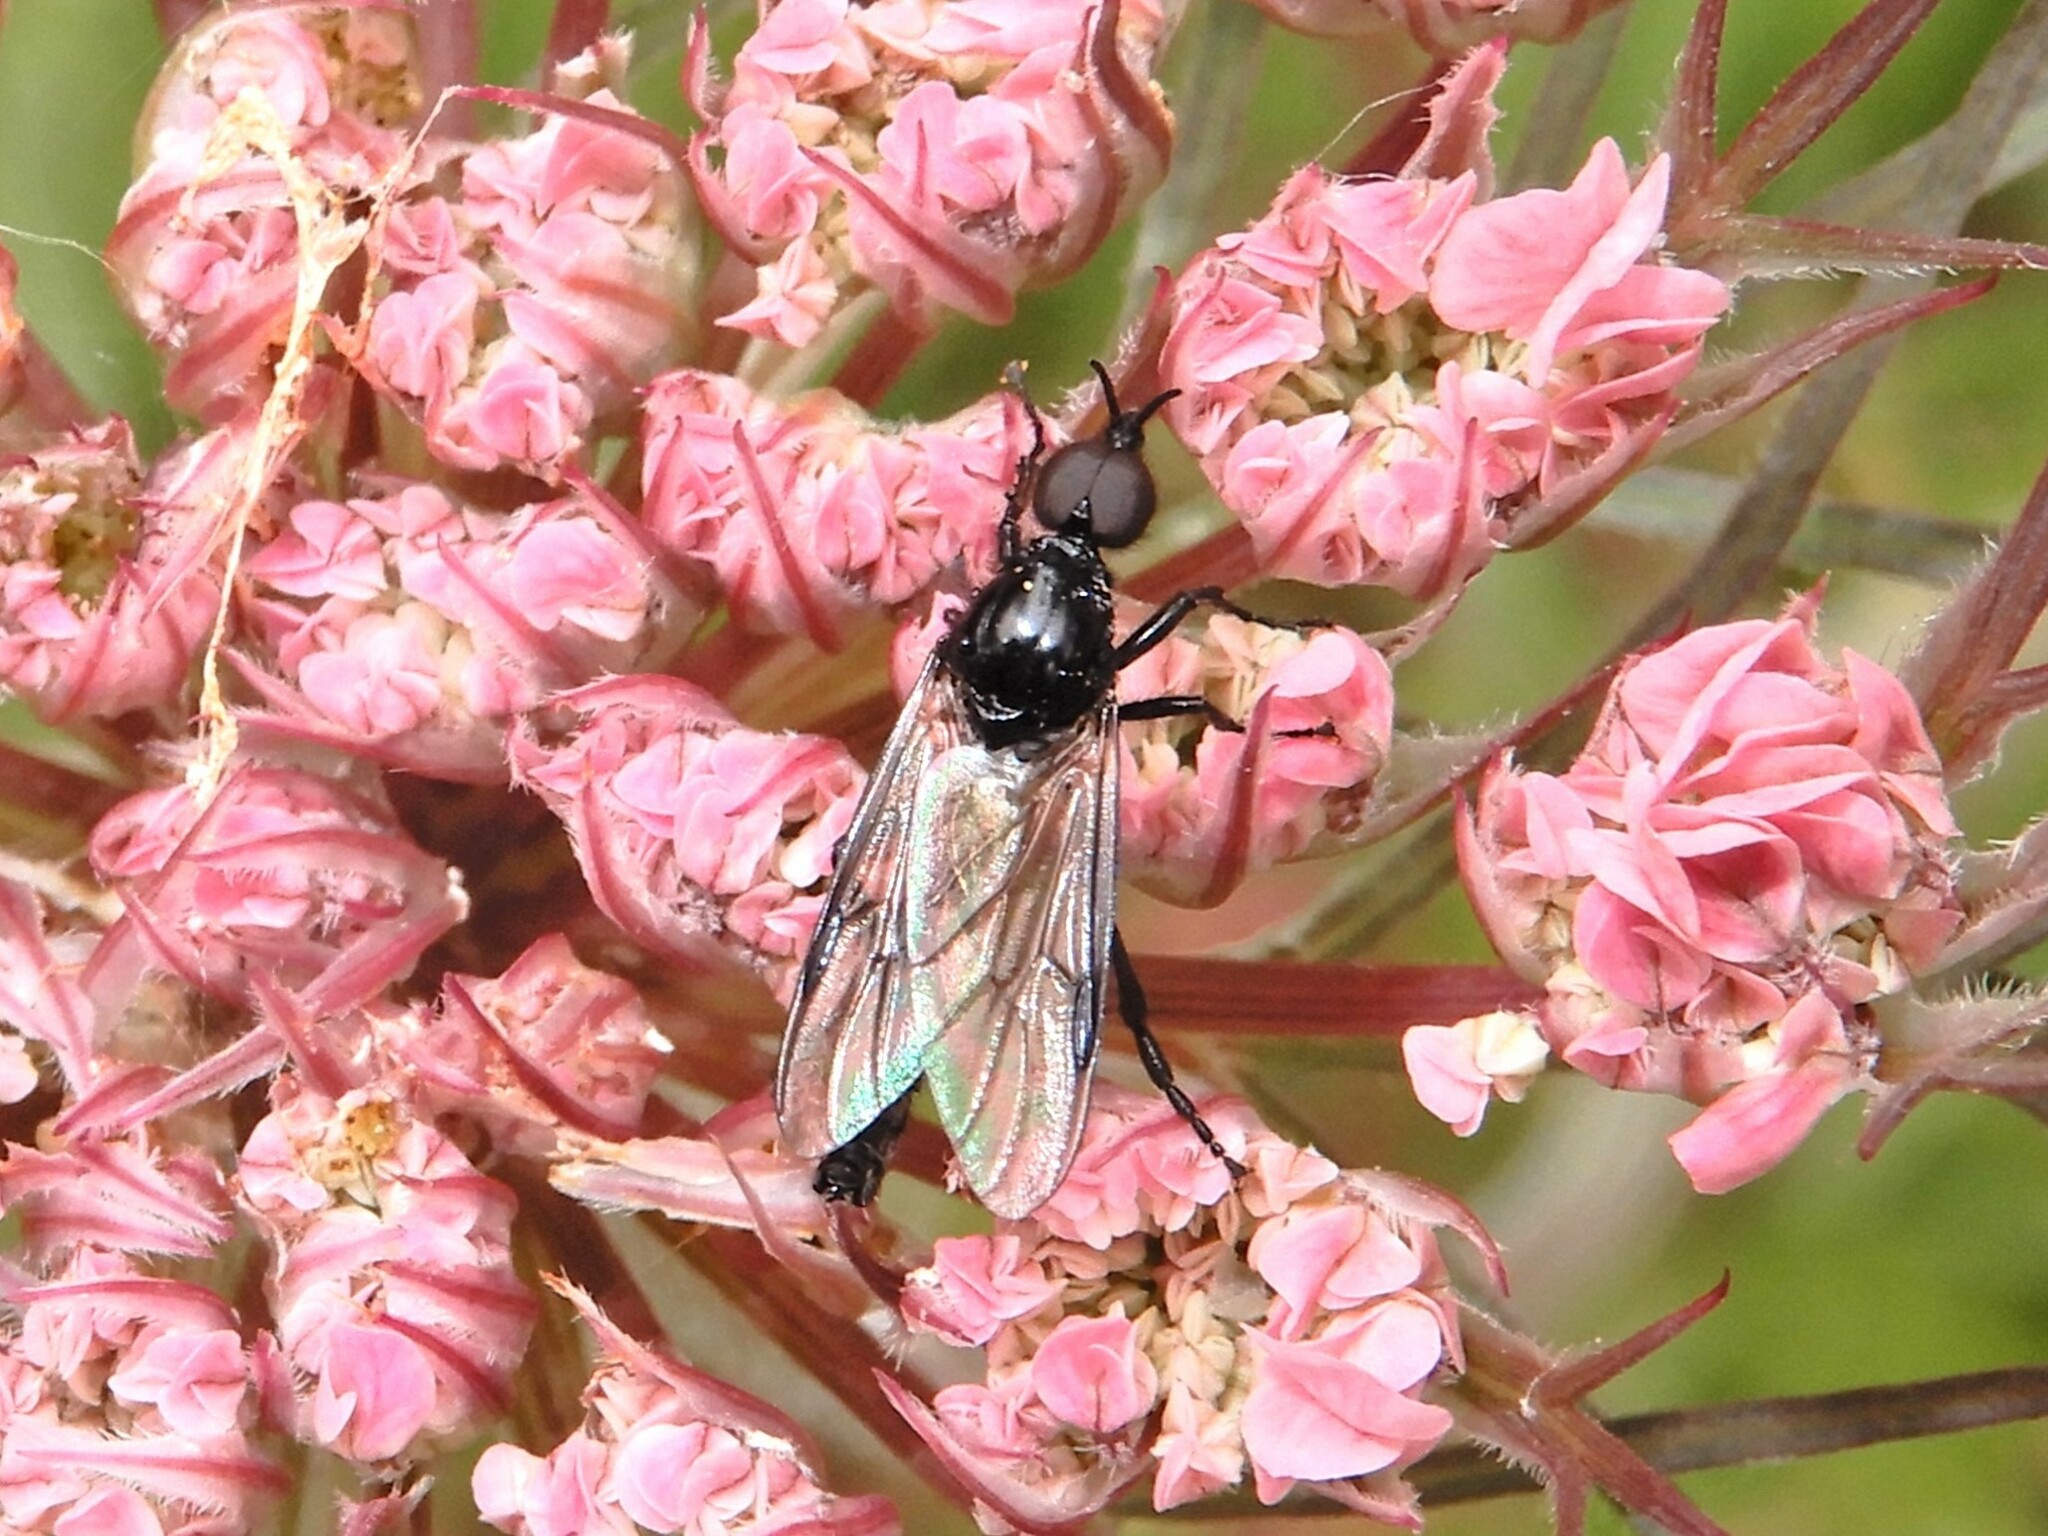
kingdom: Animalia
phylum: Arthropoda
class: Insecta
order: Diptera
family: Bibionidae
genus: Dilophus
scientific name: Dilophus nigrostigma
